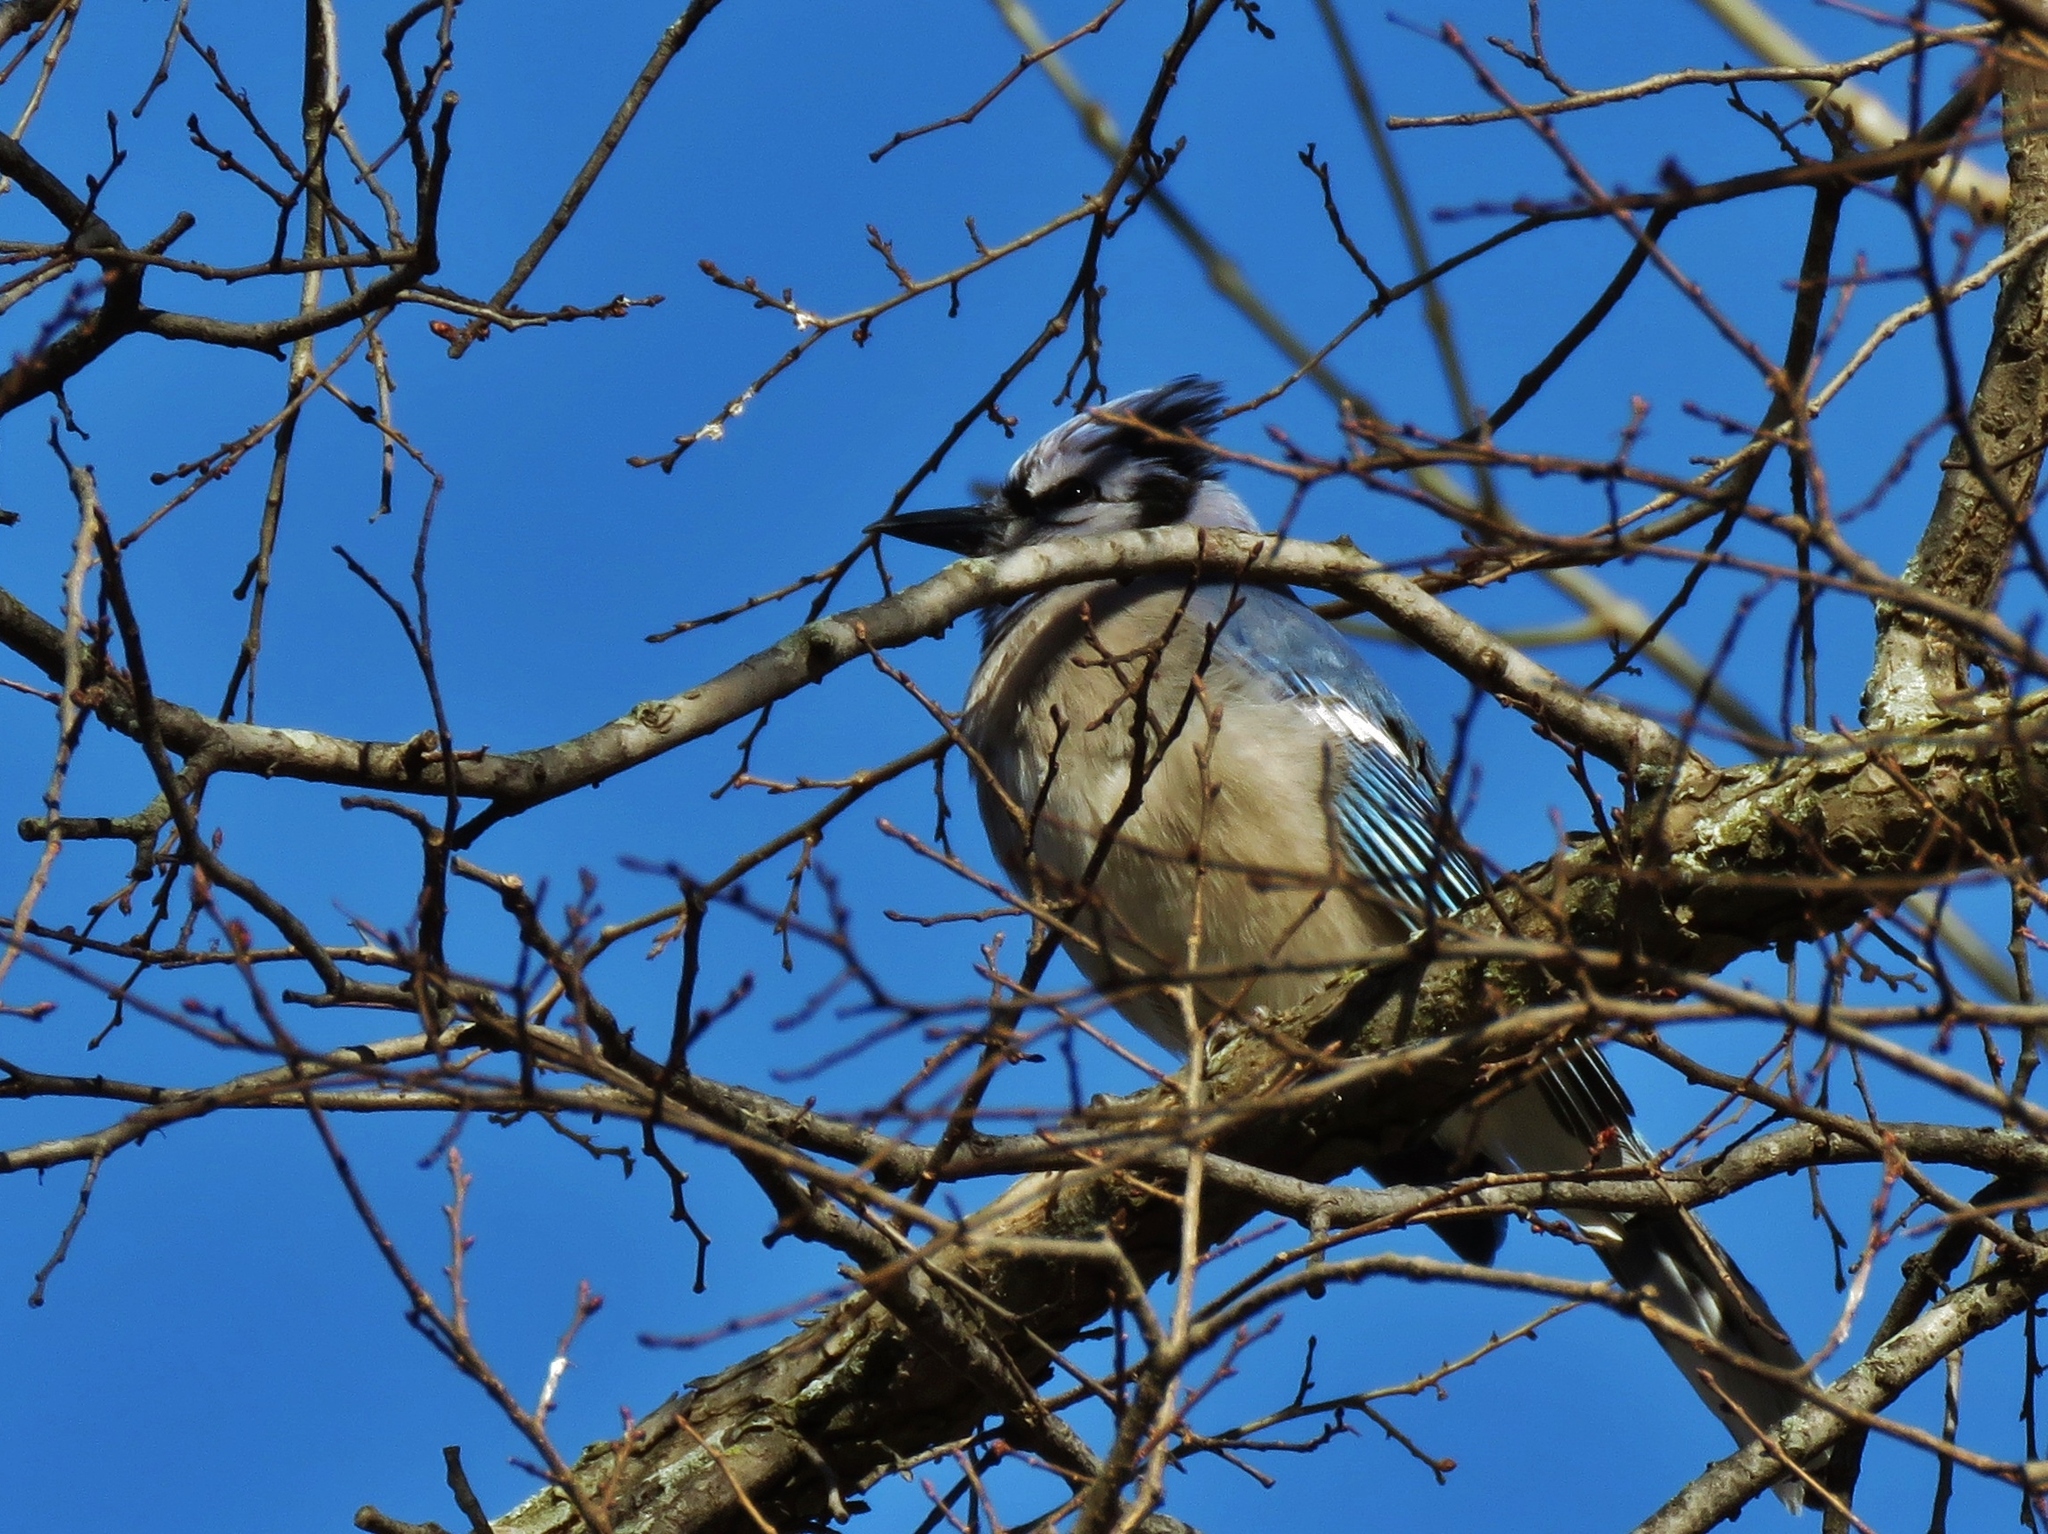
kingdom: Animalia
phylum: Chordata
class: Aves
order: Passeriformes
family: Corvidae
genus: Cyanocitta
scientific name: Cyanocitta cristata
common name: Blue jay
